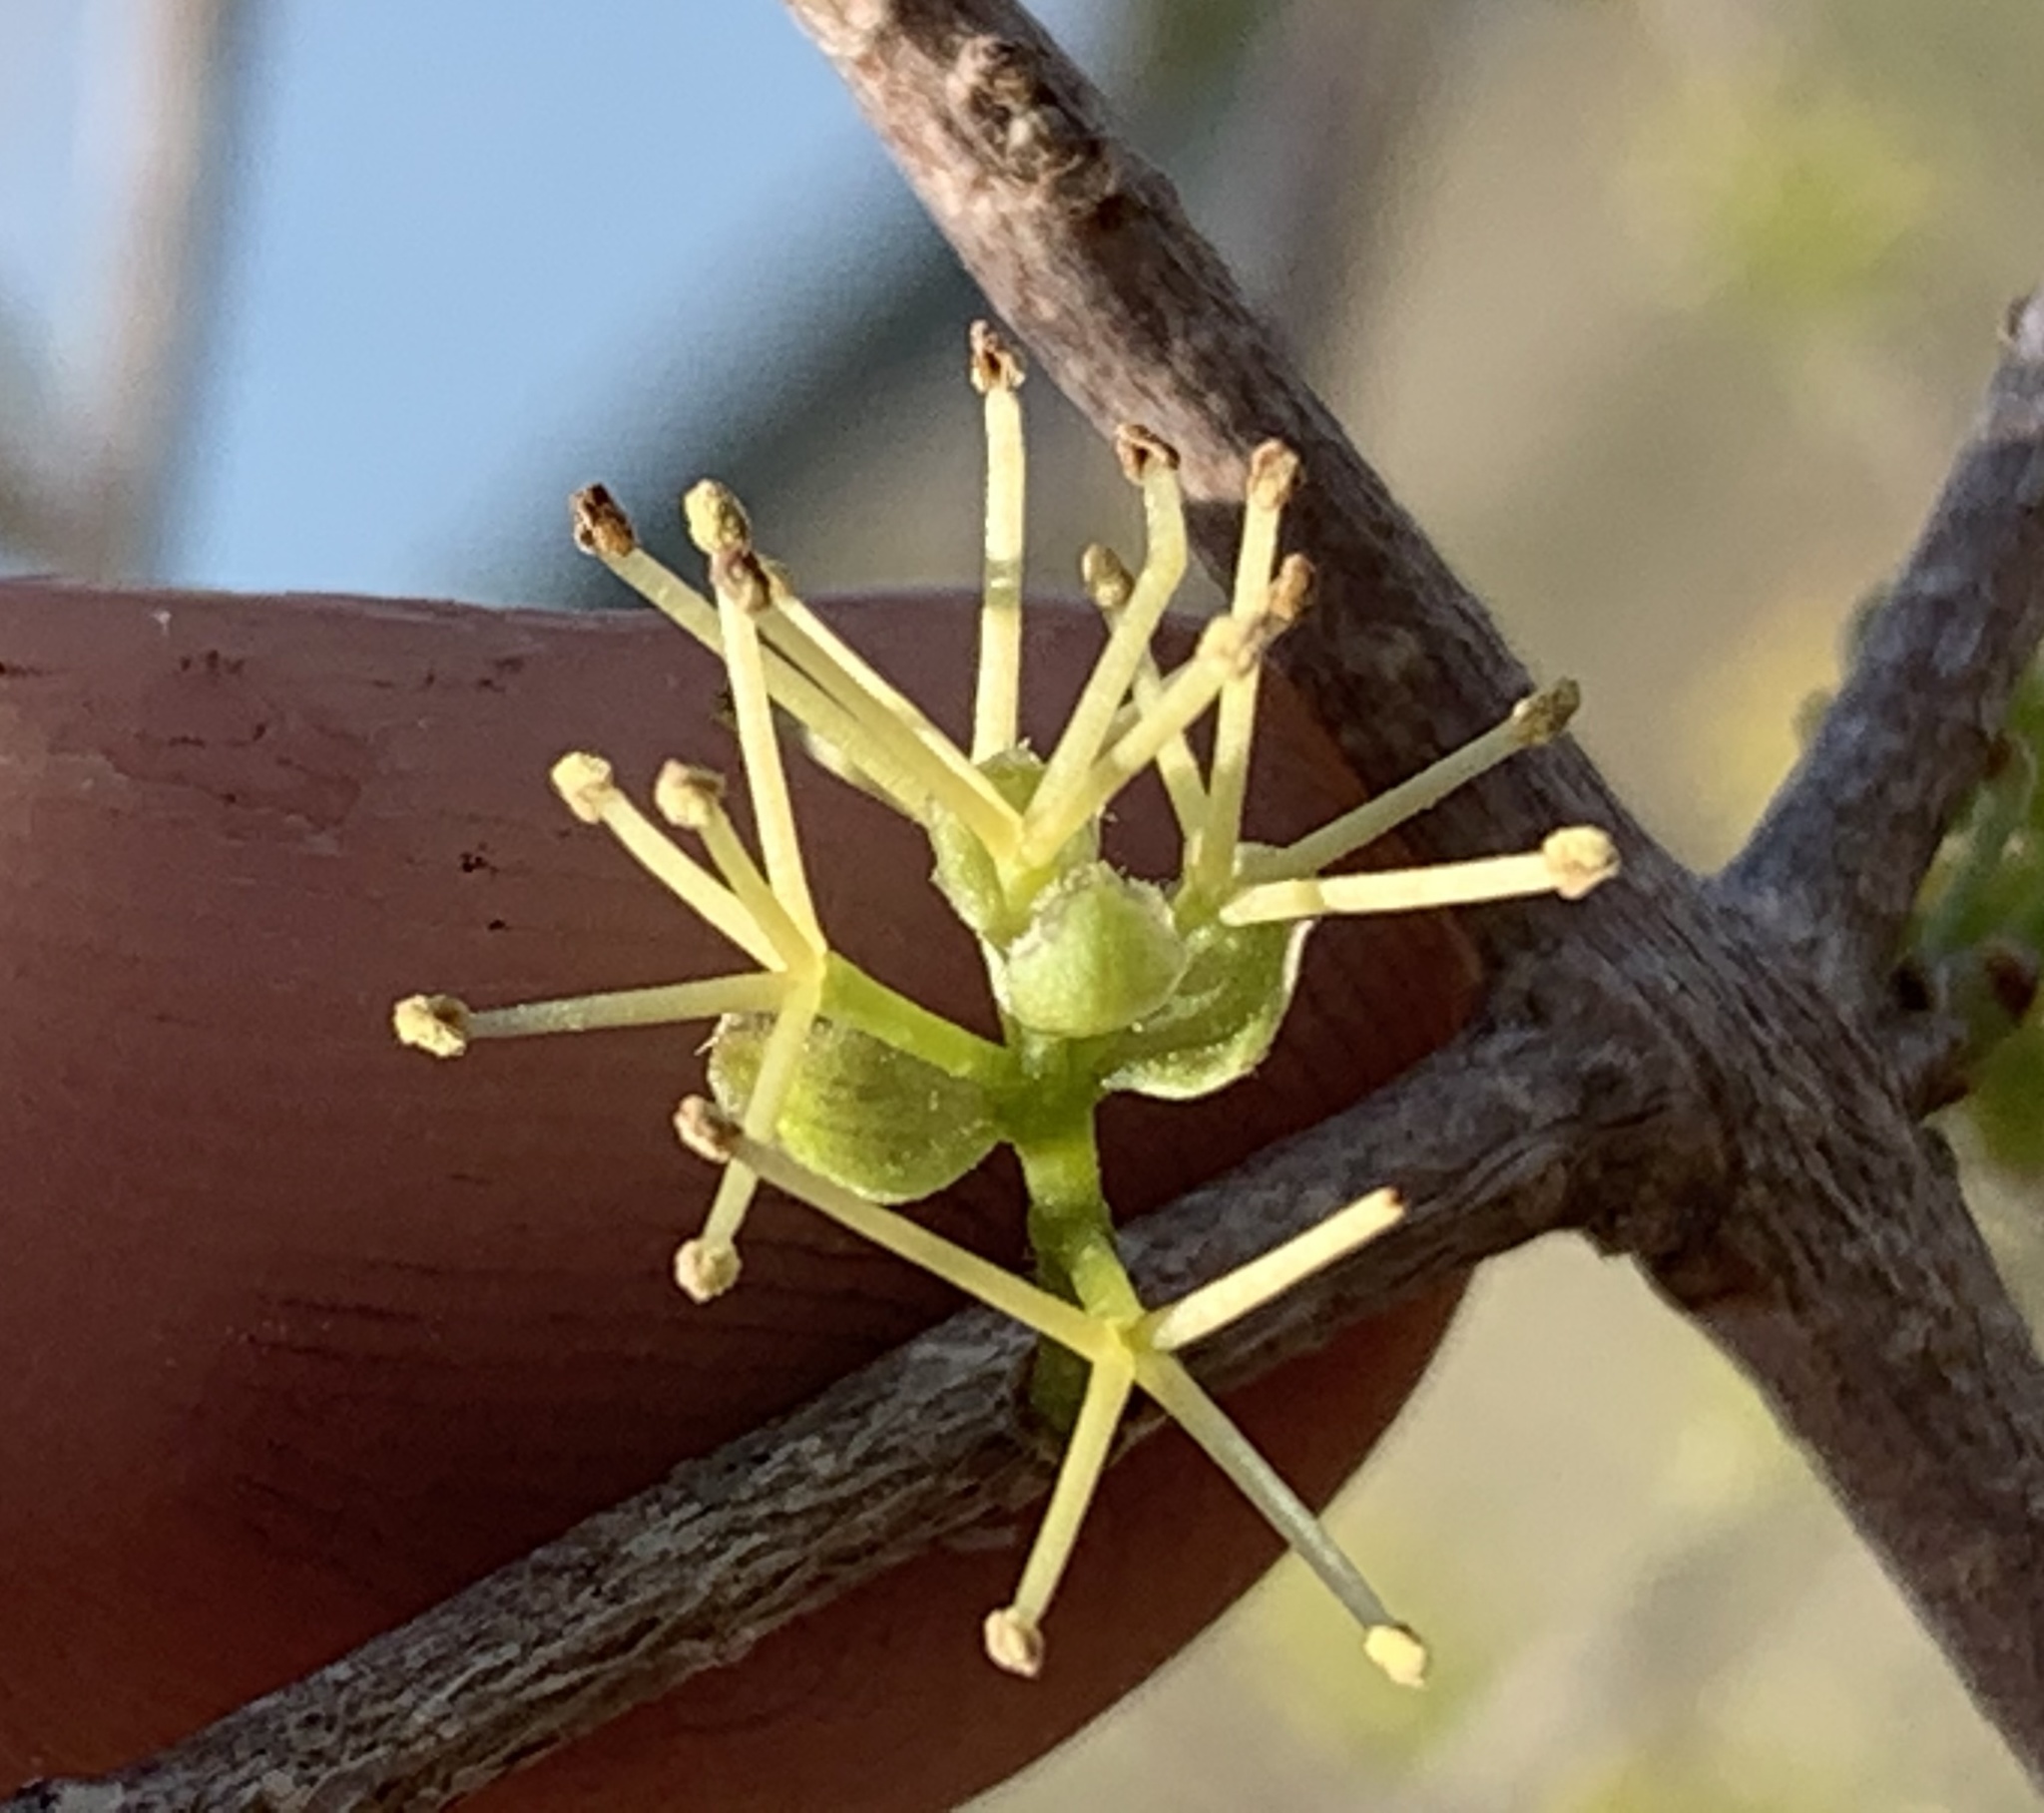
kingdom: Plantae
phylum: Tracheophyta
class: Magnoliopsida
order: Lamiales
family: Oleaceae
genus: Forestiera
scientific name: Forestiera segregata
